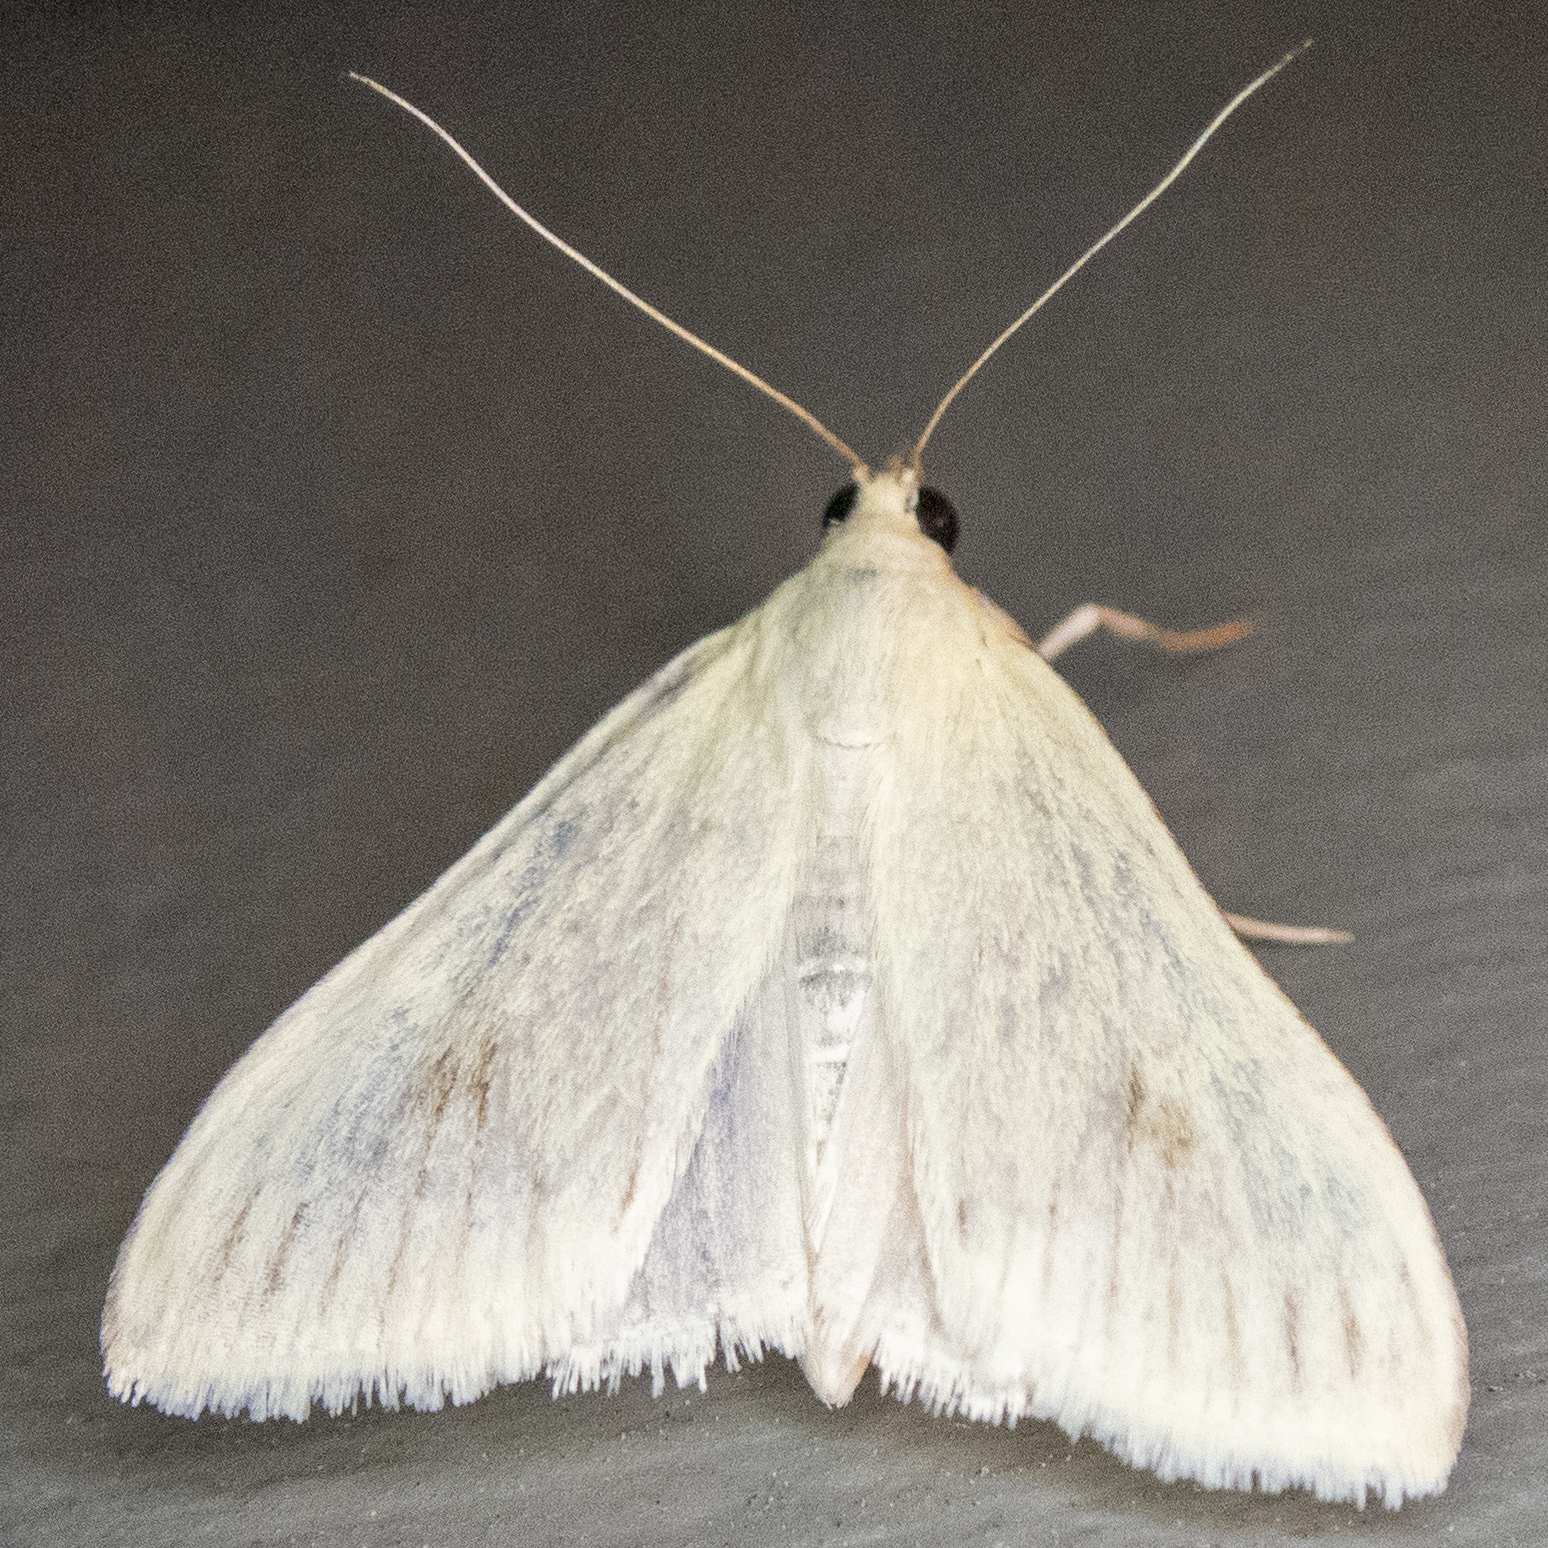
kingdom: Animalia
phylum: Arthropoda
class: Insecta
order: Lepidoptera
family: Crambidae
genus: Sitochroa
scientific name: Sitochroa palealis
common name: Greenish-yellow sitochroa moth
